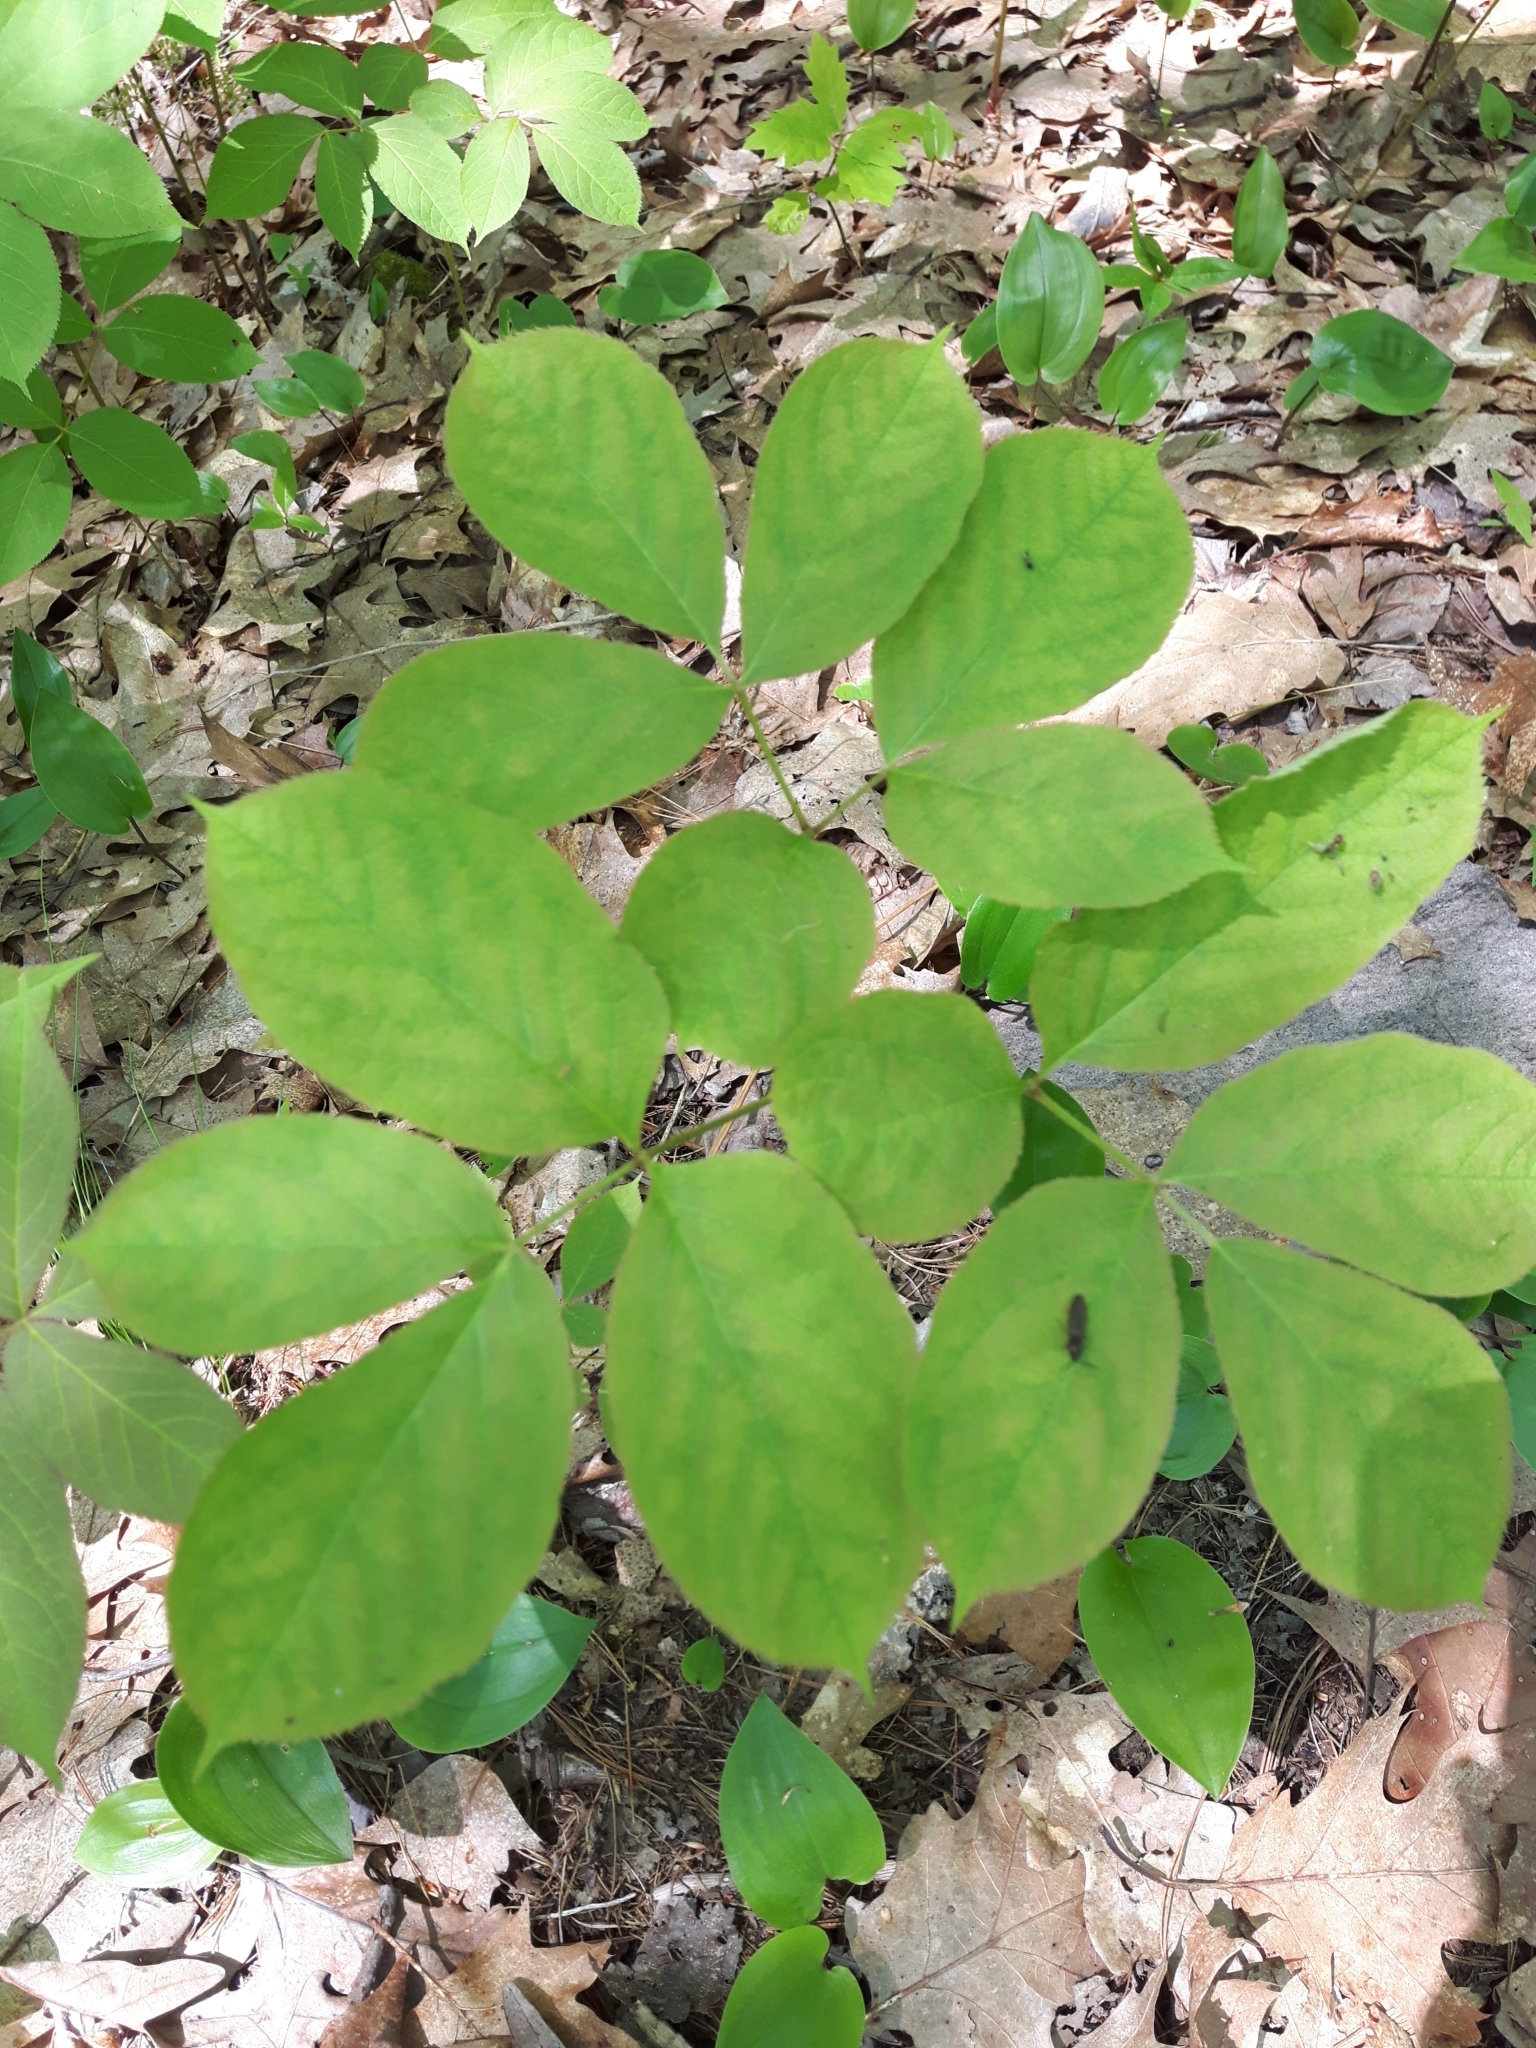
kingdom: Plantae
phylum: Tracheophyta
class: Magnoliopsida
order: Apiales
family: Araliaceae
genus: Aralia
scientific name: Aralia nudicaulis
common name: Wild sarsaparilla
